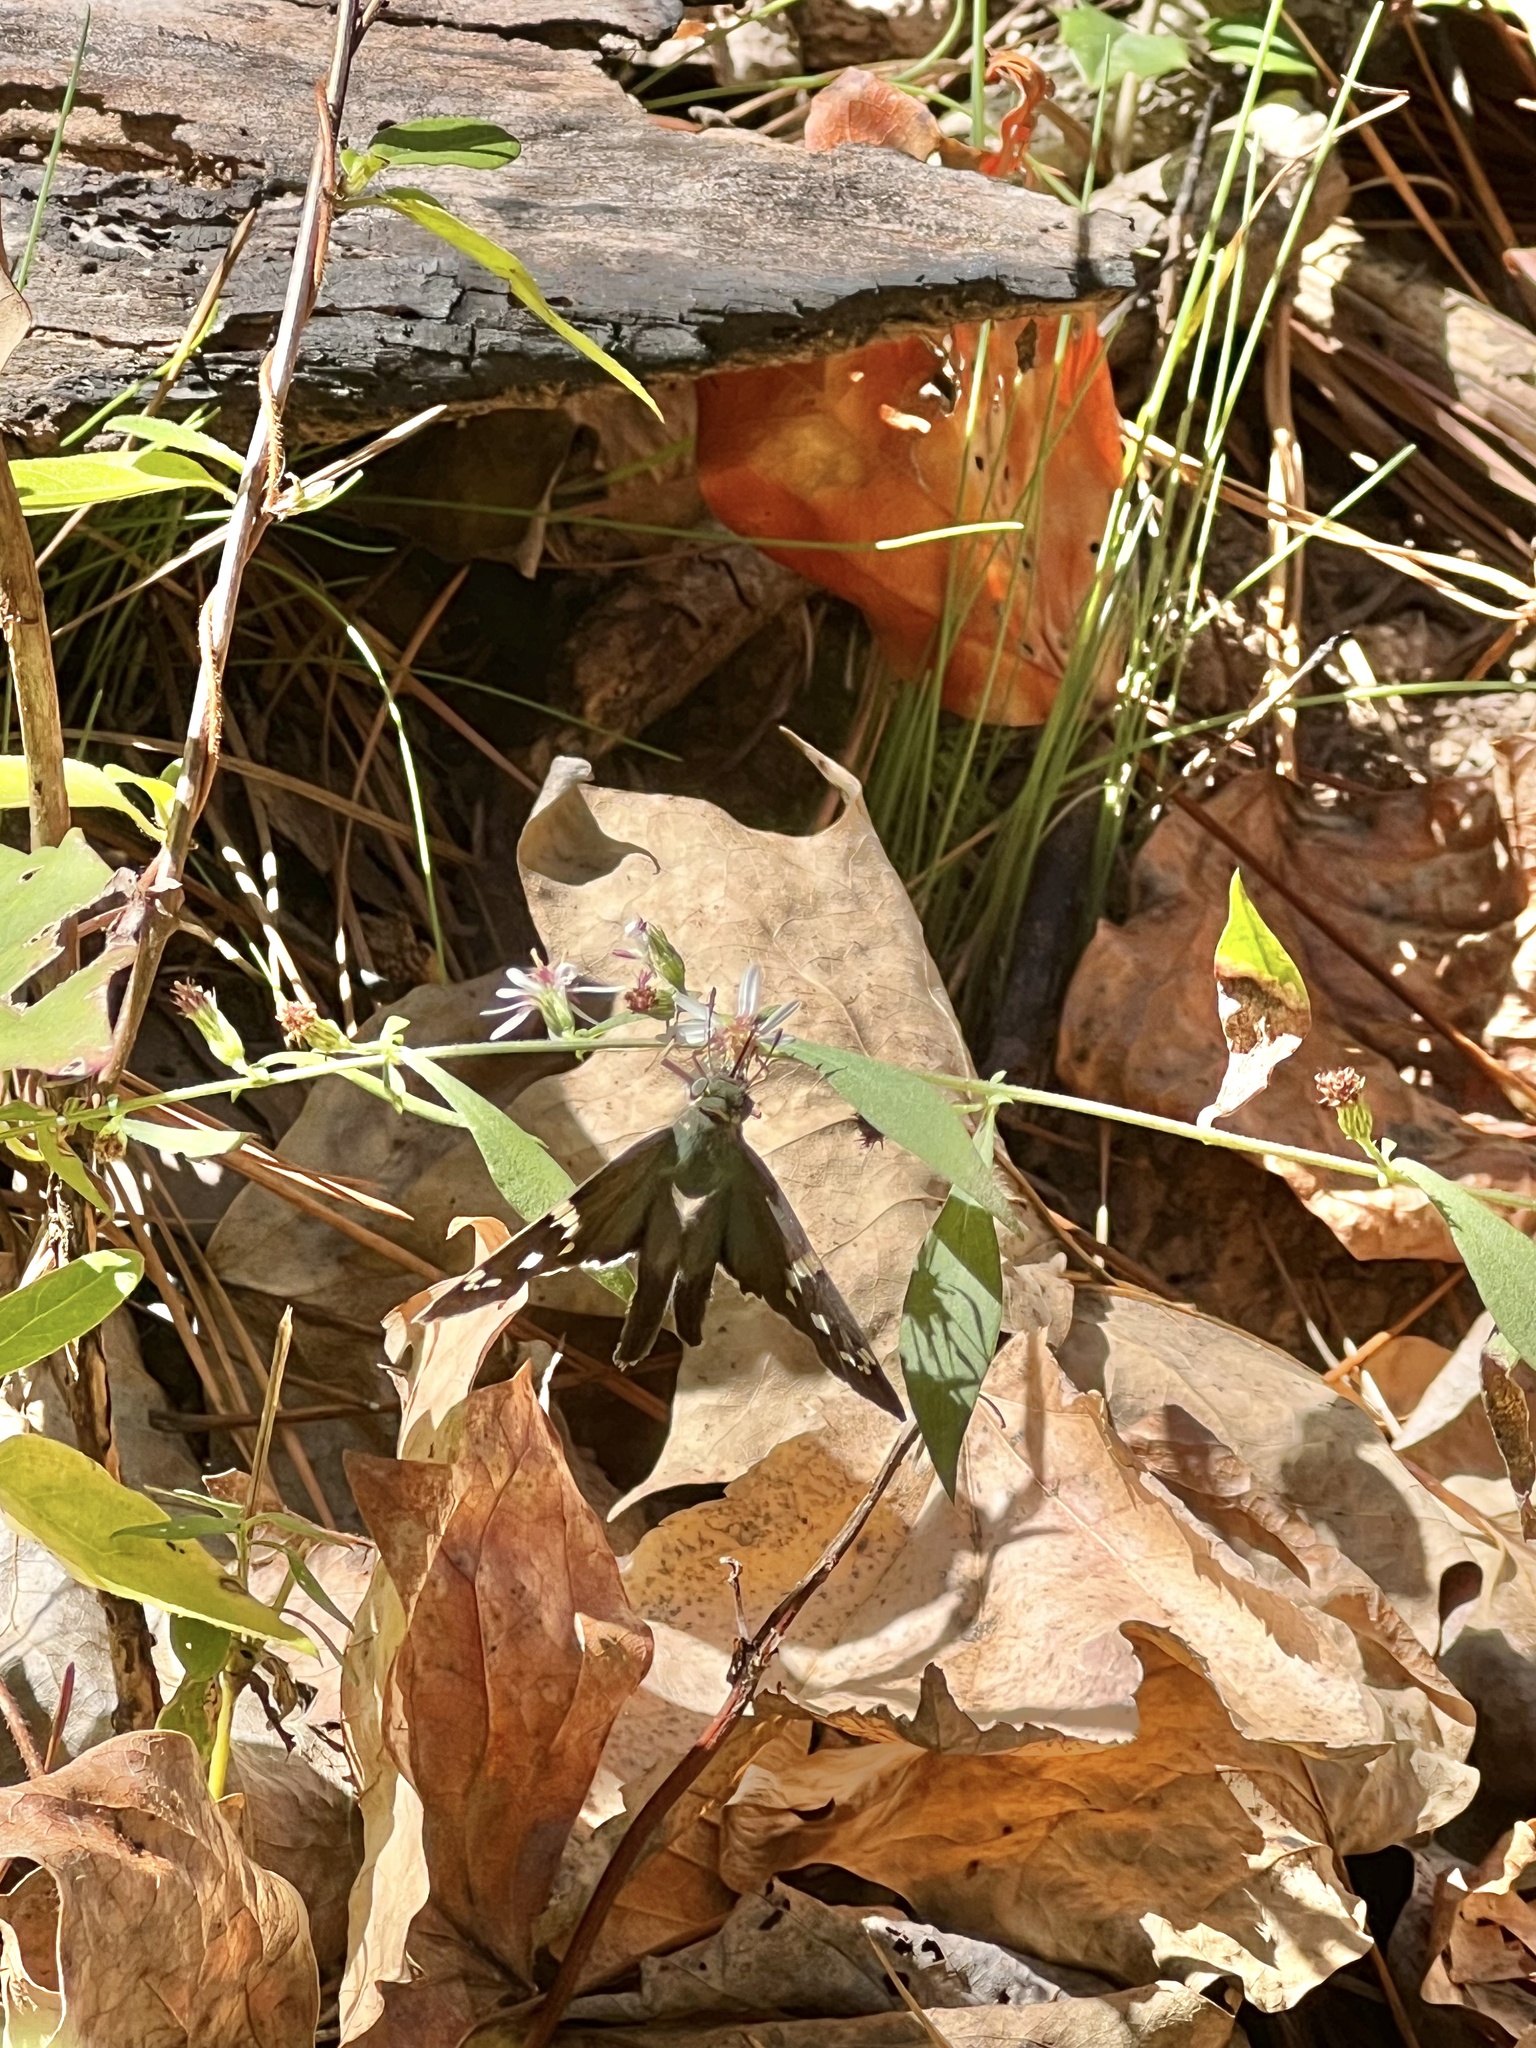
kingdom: Animalia
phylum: Arthropoda
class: Insecta
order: Lepidoptera
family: Hesperiidae
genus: Urbanus
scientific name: Urbanus proteus
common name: Long-tailed skipper
